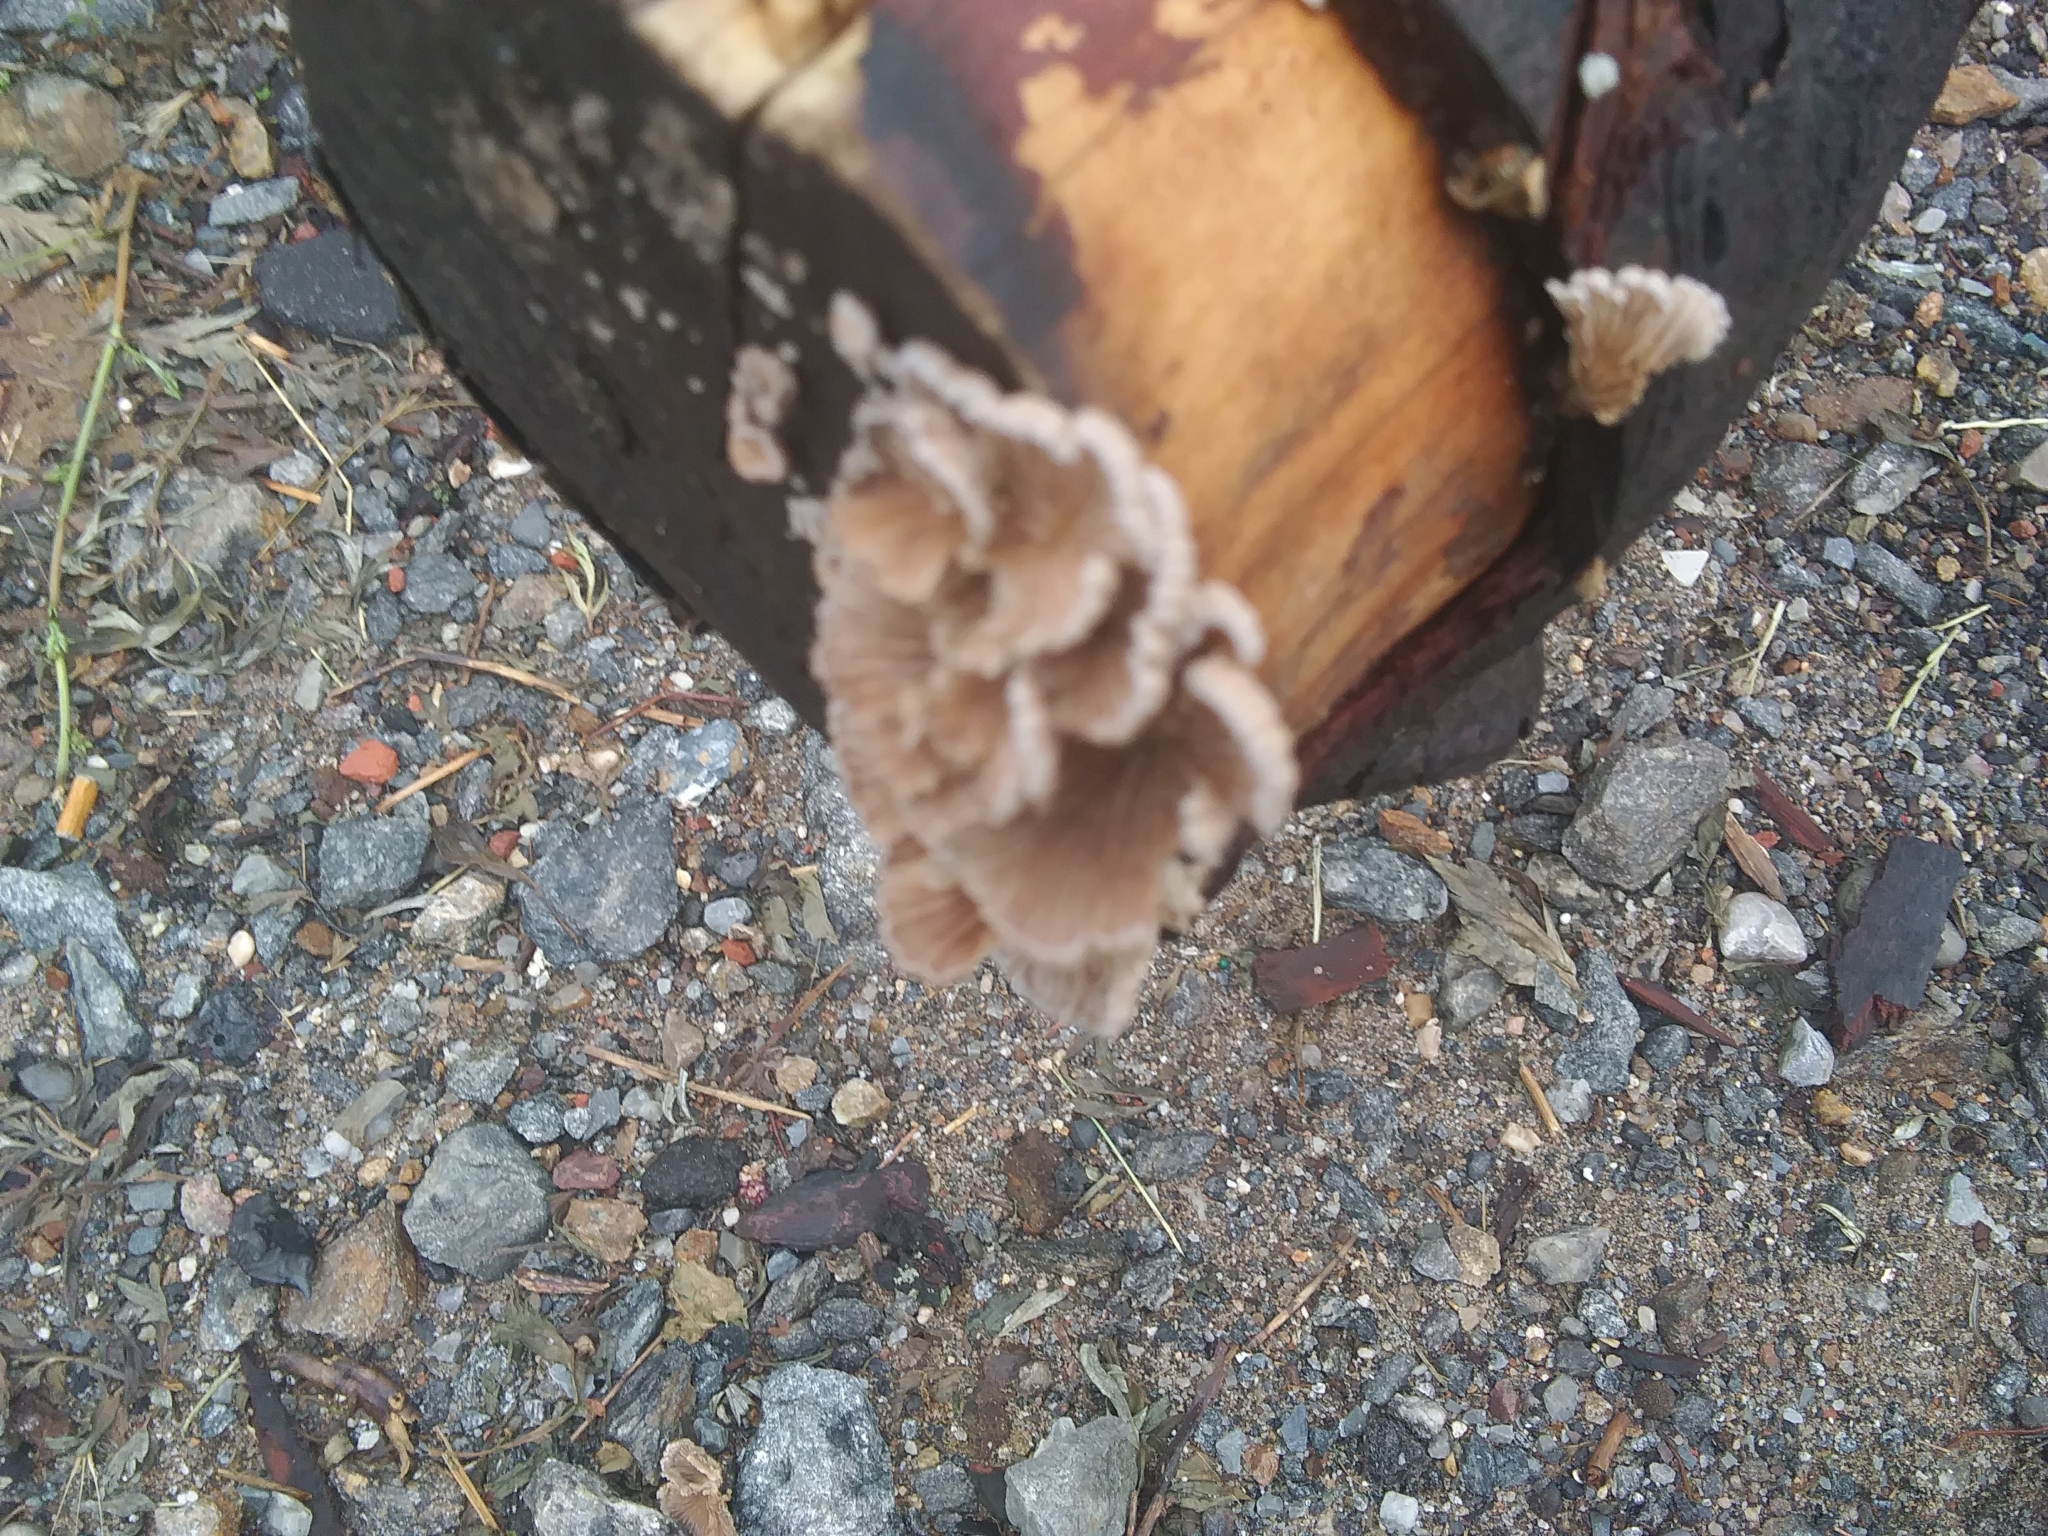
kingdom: Fungi
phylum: Basidiomycota
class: Agaricomycetes
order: Agaricales
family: Schizophyllaceae
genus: Schizophyllum
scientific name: Schizophyllum commune
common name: Common porecrust
